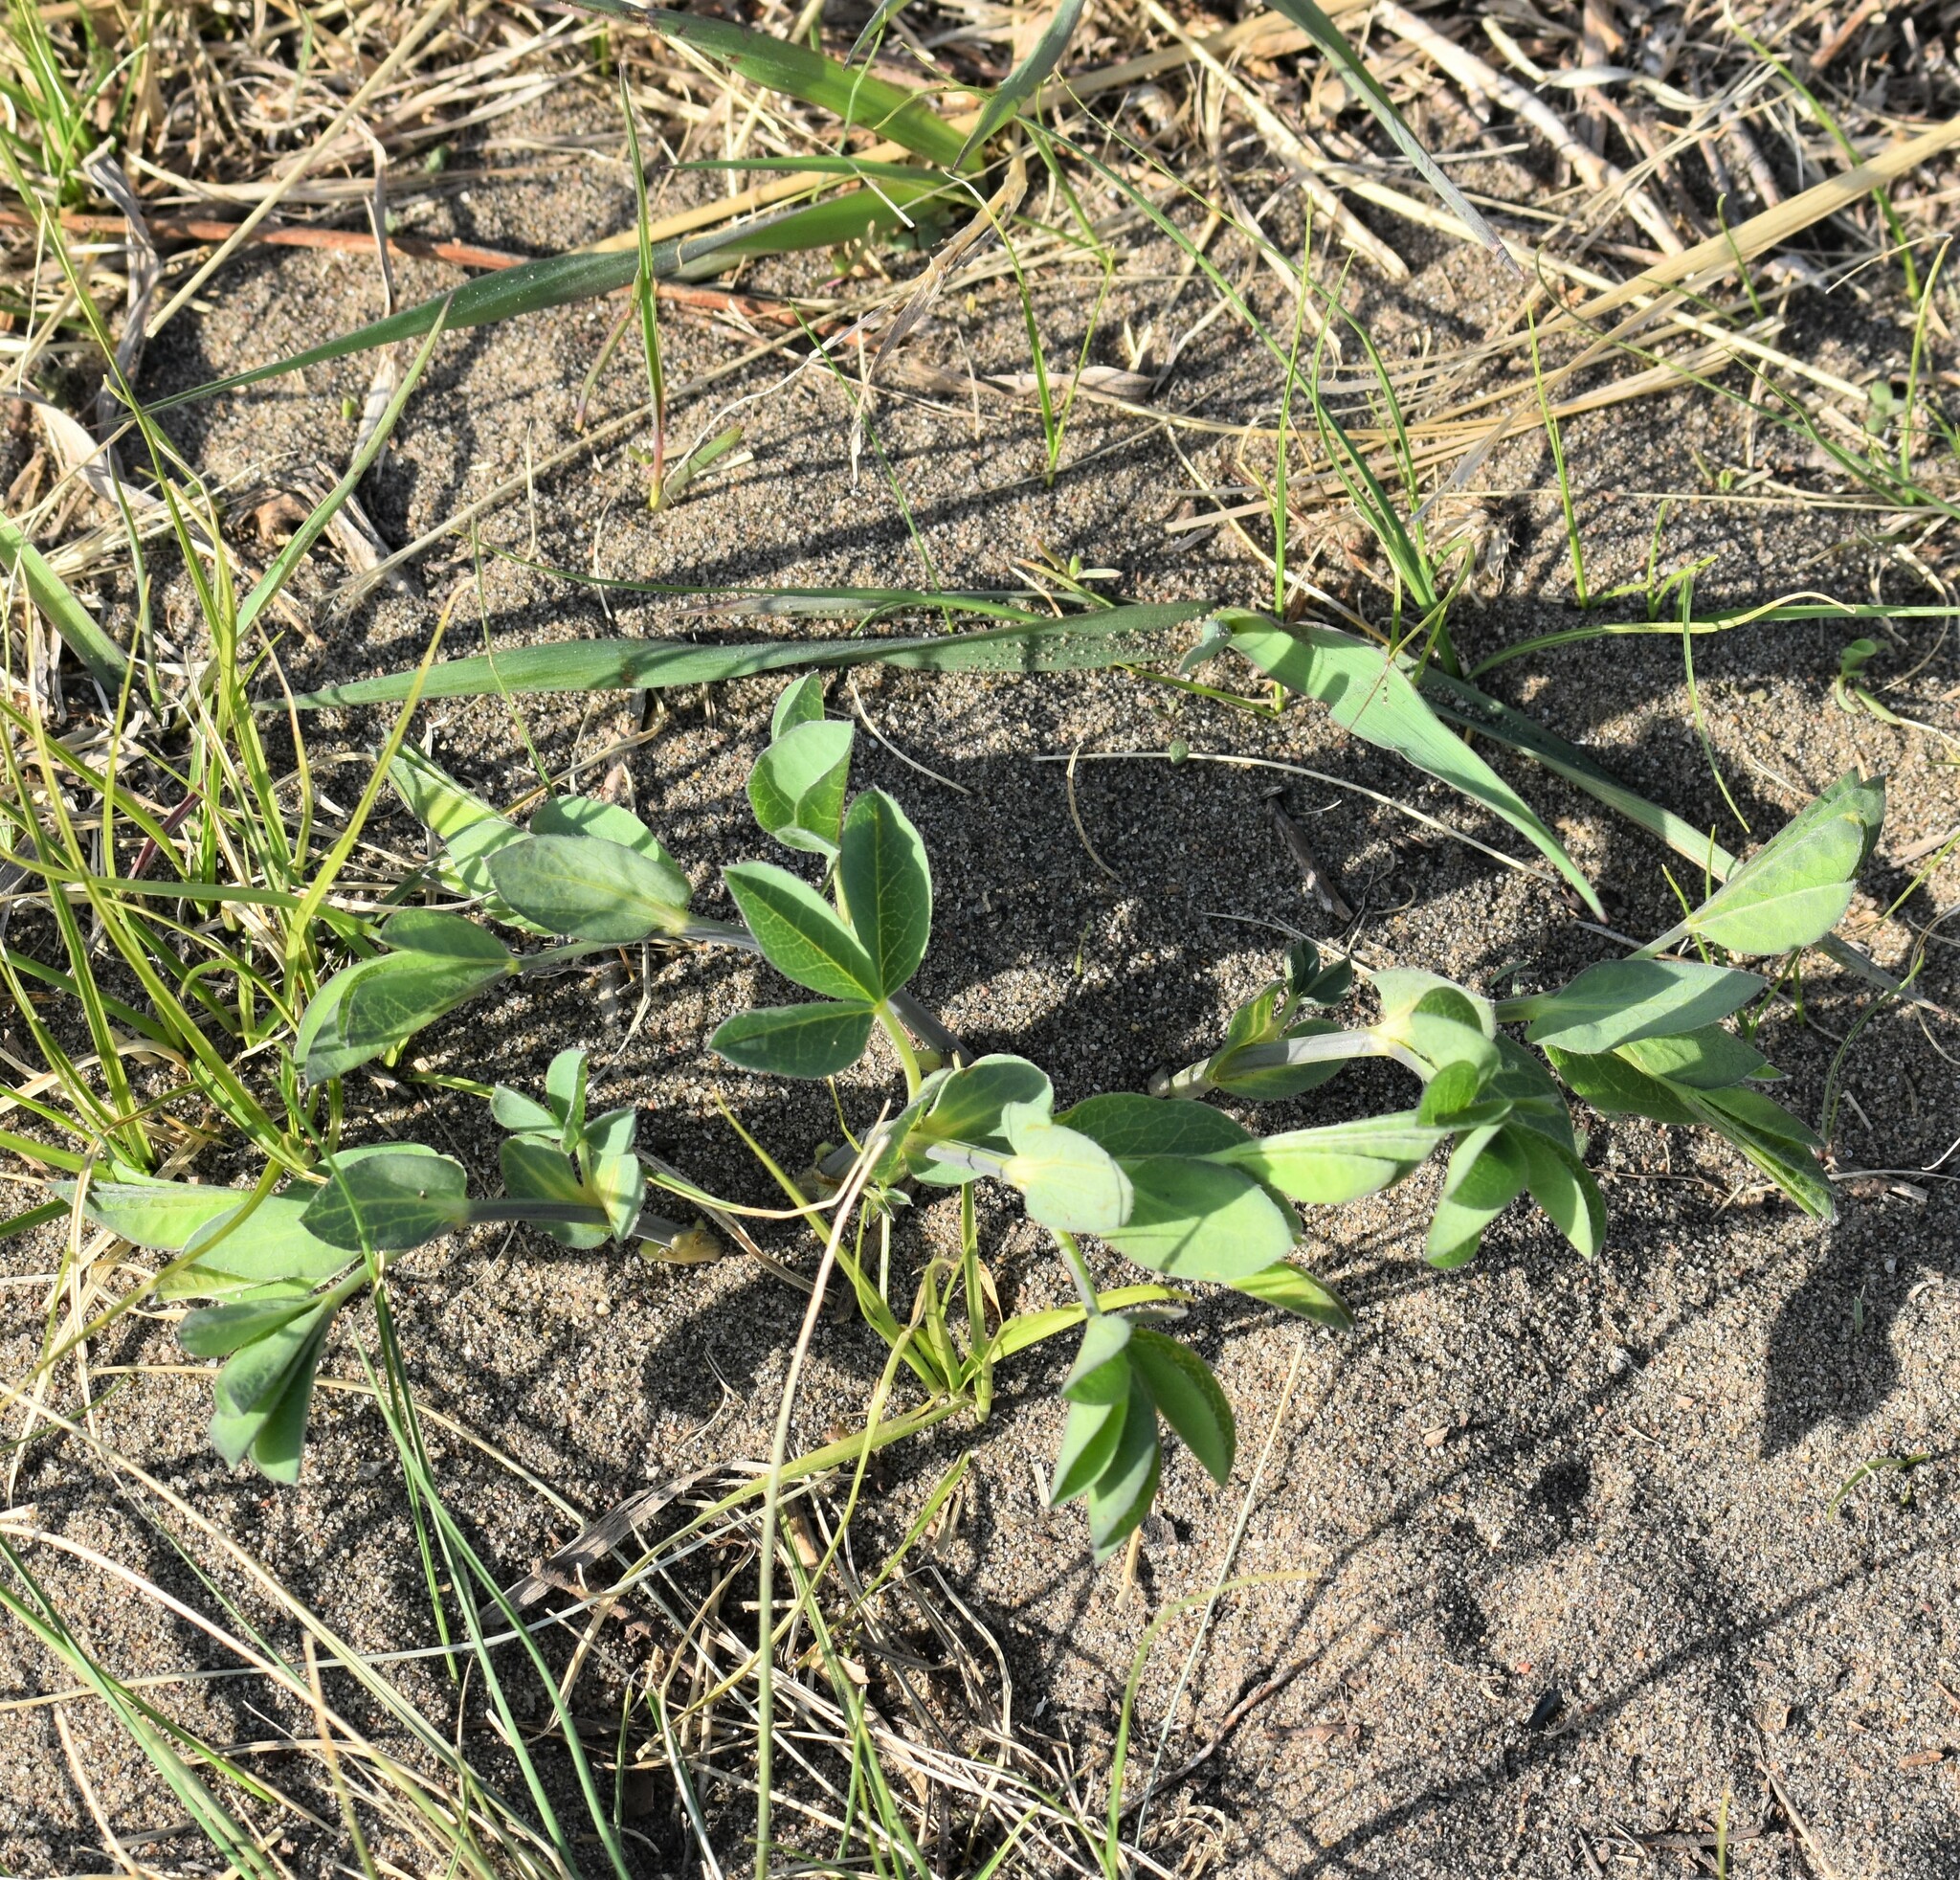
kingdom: Plantae
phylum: Tracheophyta
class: Magnoliopsida
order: Fabales
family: Fabaceae
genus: Thermopsis
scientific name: Thermopsis rhombifolia
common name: Circle-pod-pea
